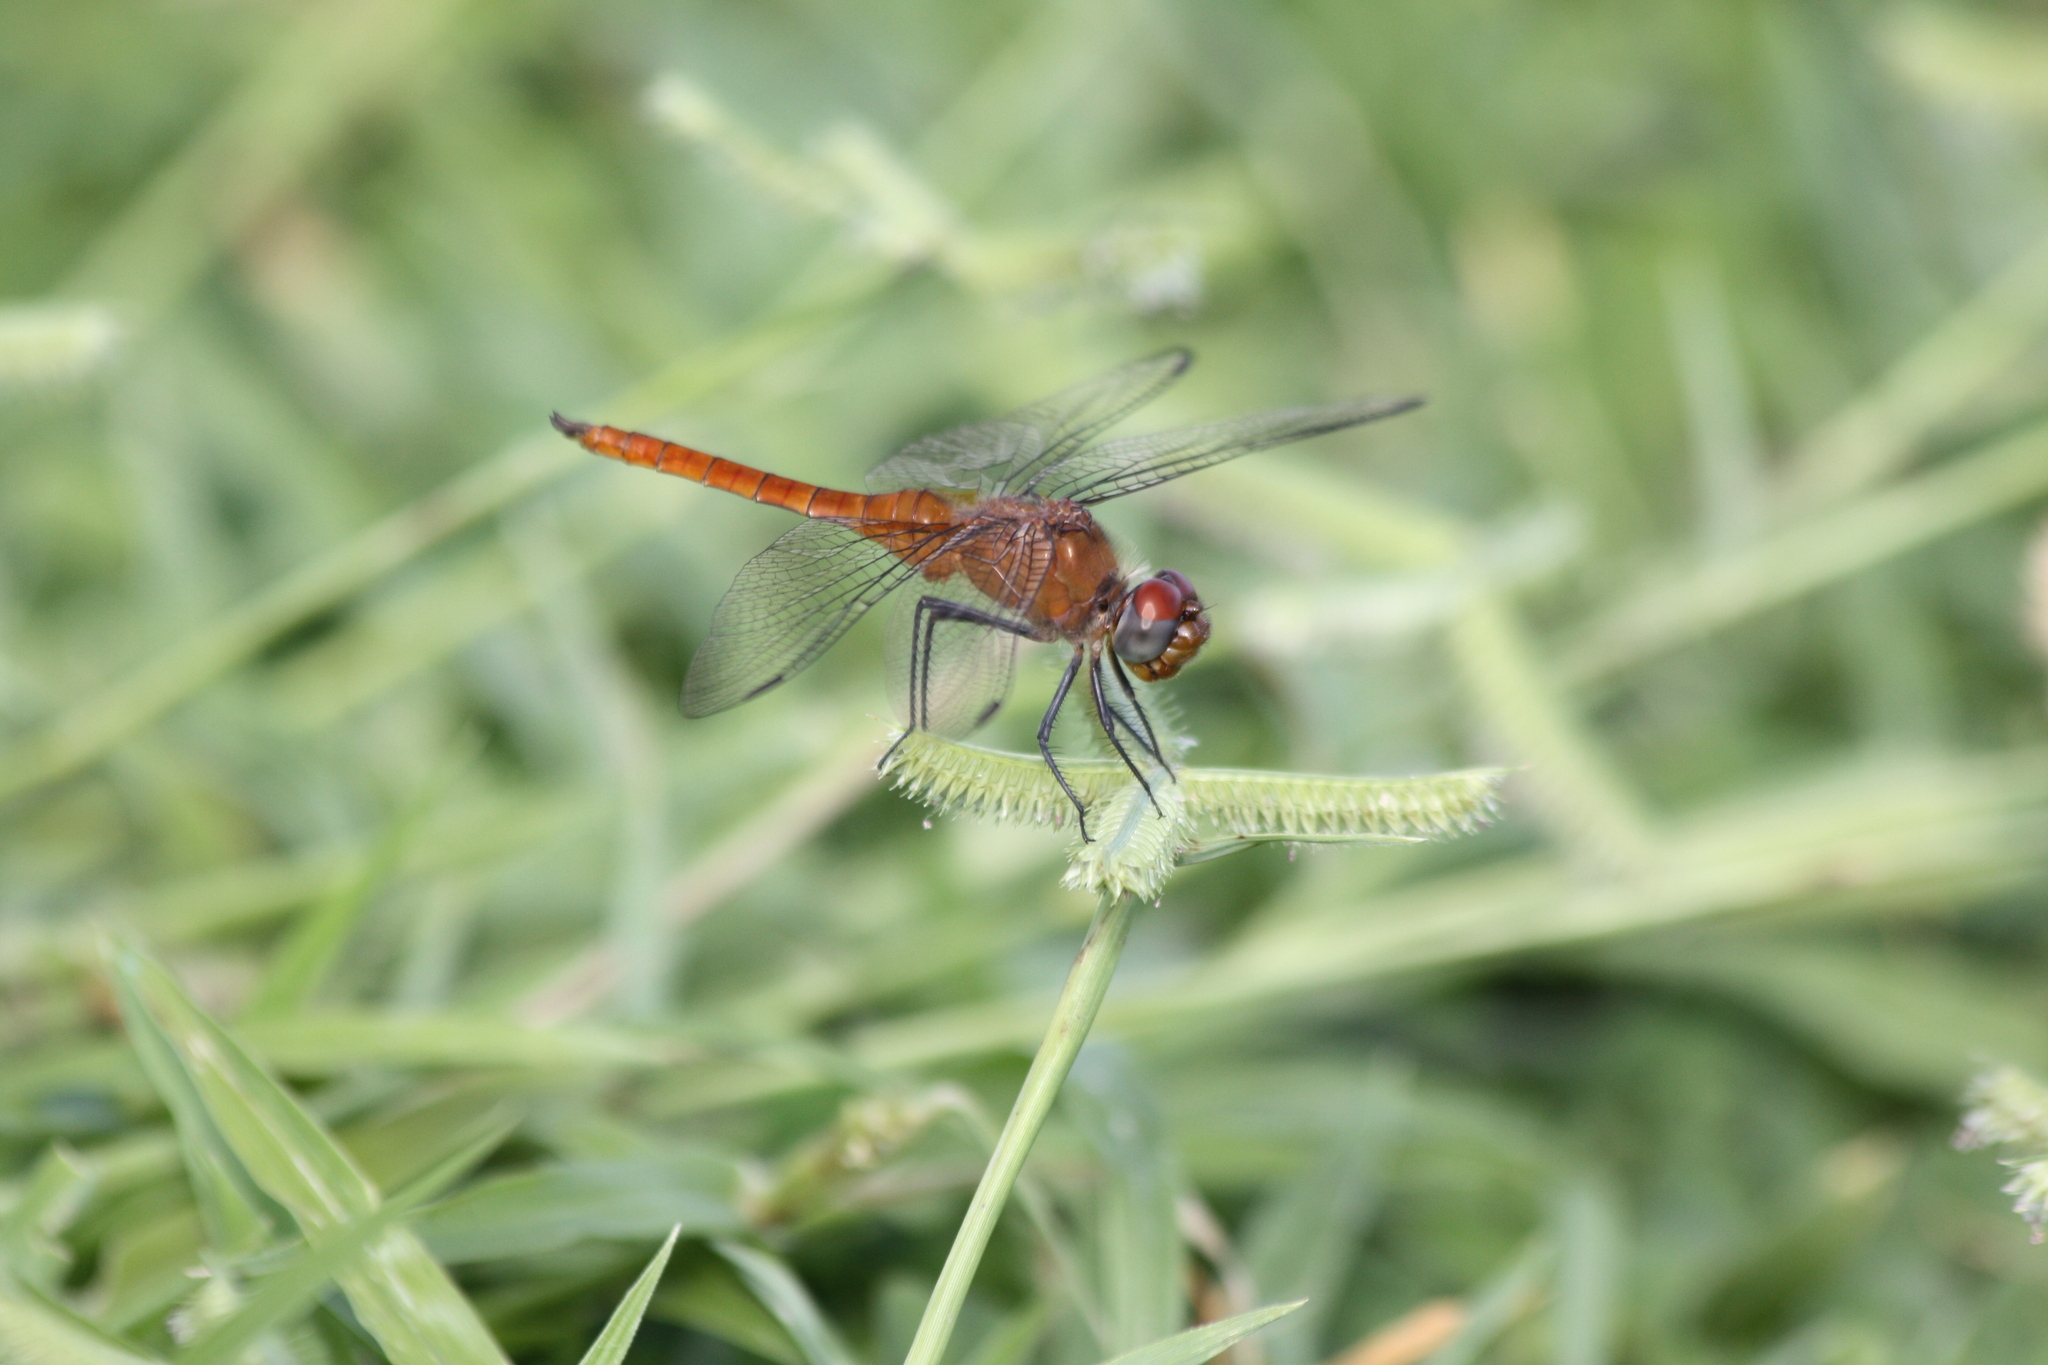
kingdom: Animalia
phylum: Arthropoda
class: Insecta
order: Odonata
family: Libellulidae
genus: Brachymesia
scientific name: Brachymesia furcata
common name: Red-taled pennant
